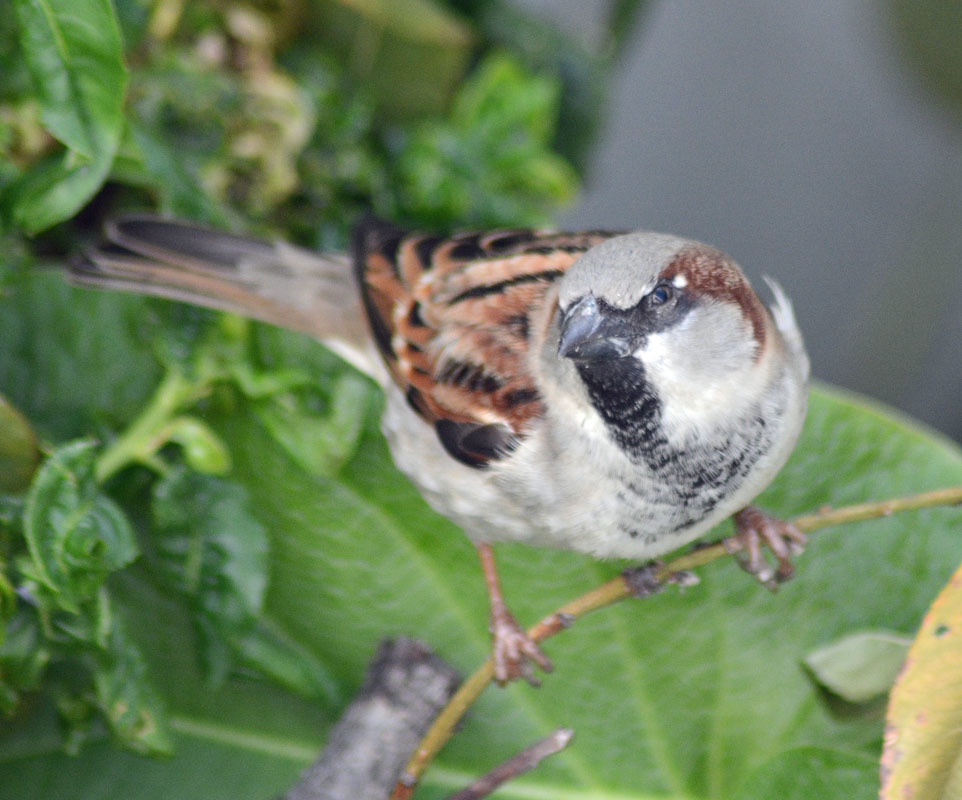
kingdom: Animalia
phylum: Chordata
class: Aves
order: Passeriformes
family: Passeridae
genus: Passer
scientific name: Passer domesticus
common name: House sparrow
